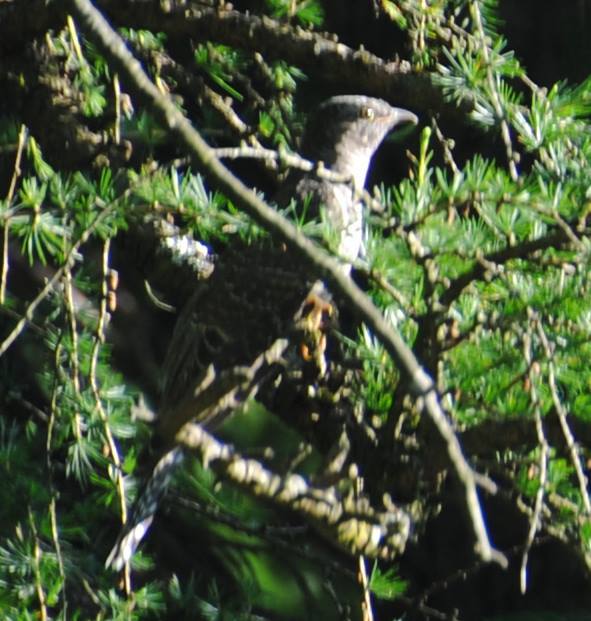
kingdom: Animalia
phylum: Chordata
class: Aves
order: Cuculiformes
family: Cuculidae
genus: Cuculus
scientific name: Cuculus canorus
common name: Common cuckoo
